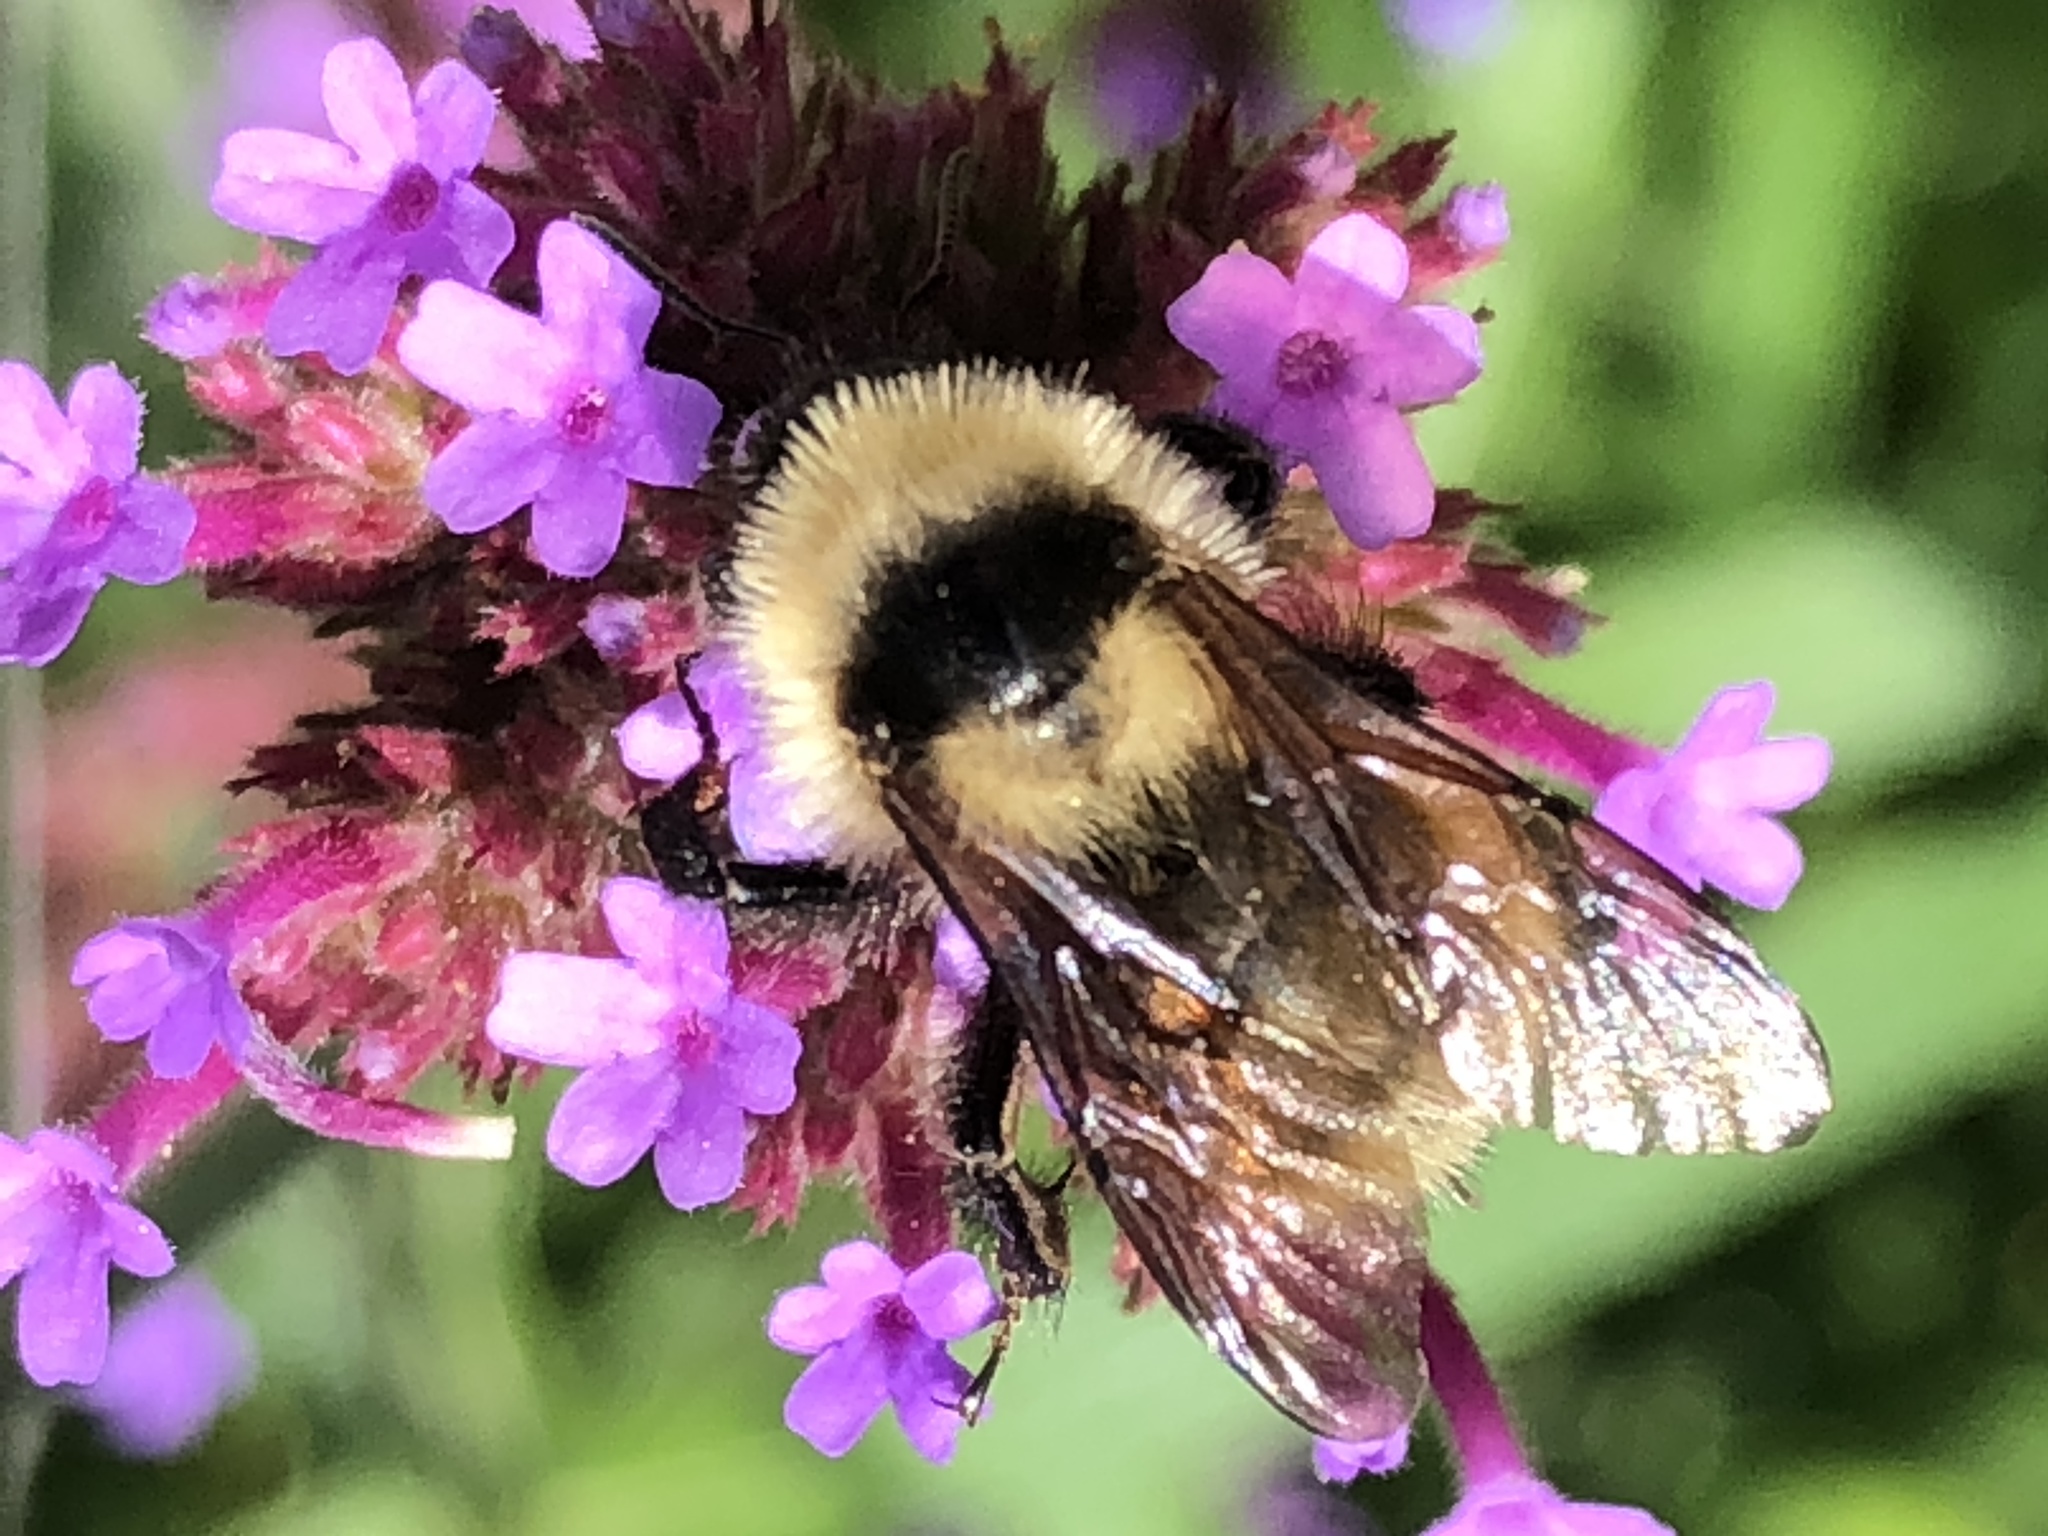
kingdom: Animalia
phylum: Arthropoda
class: Insecta
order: Hymenoptera
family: Apidae
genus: Bombus
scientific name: Bombus fervidus
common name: Yellow bumble bee
